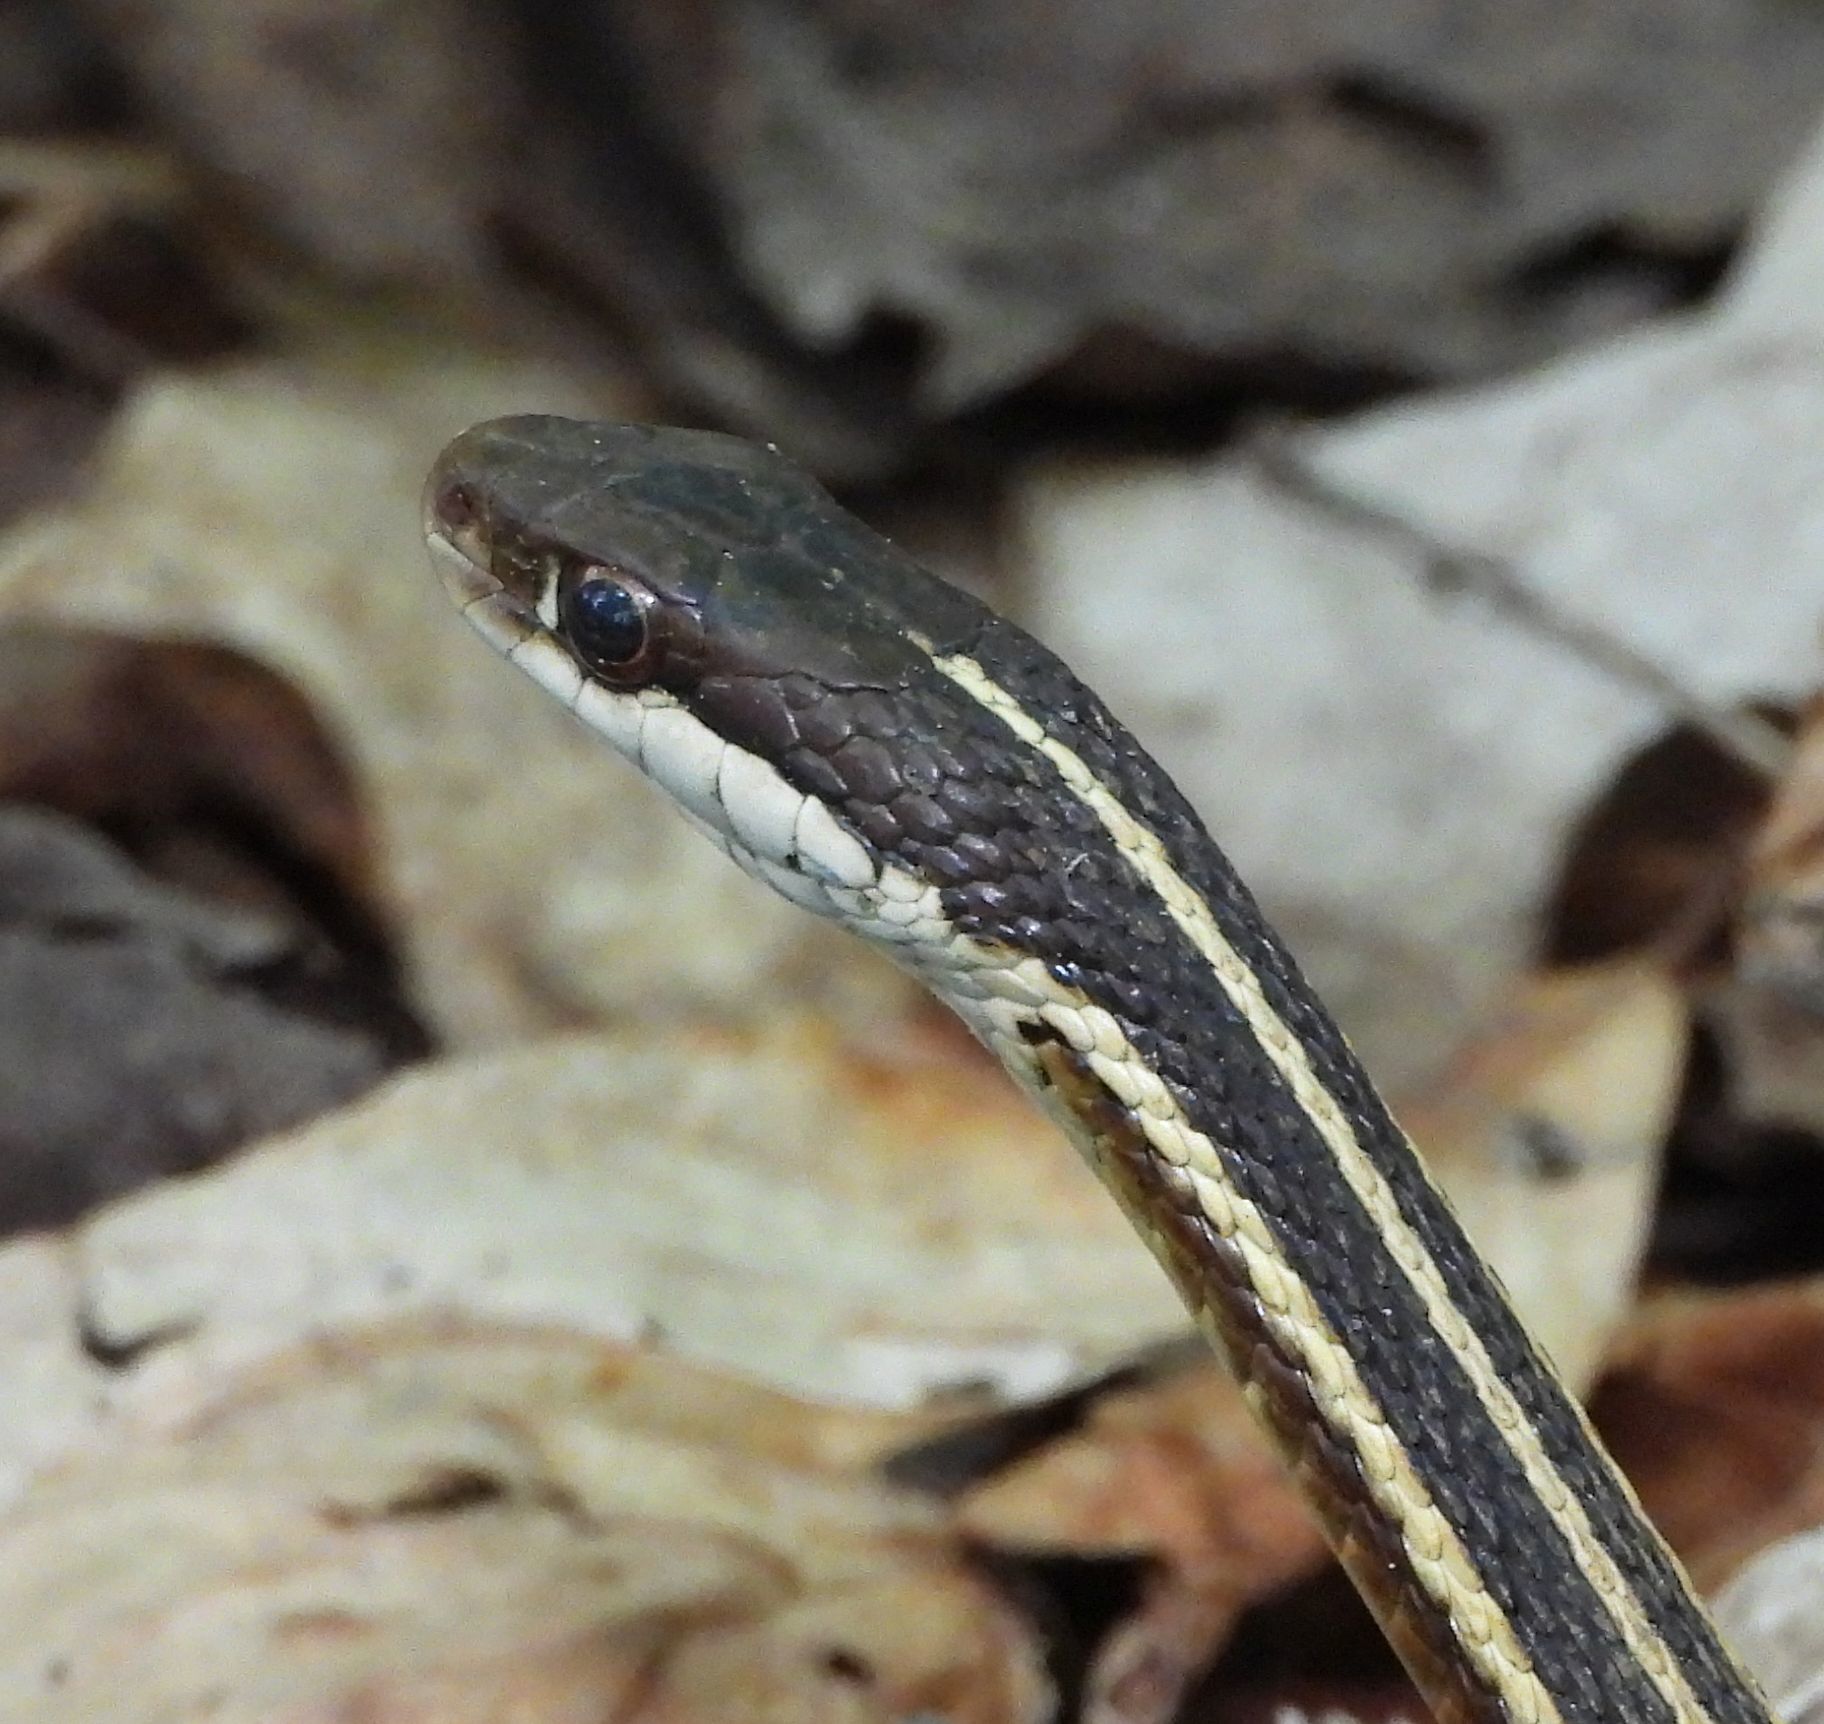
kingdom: Animalia
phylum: Chordata
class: Squamata
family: Colubridae
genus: Thamnophis
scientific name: Thamnophis saurita
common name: Eastern ribbonsnake
